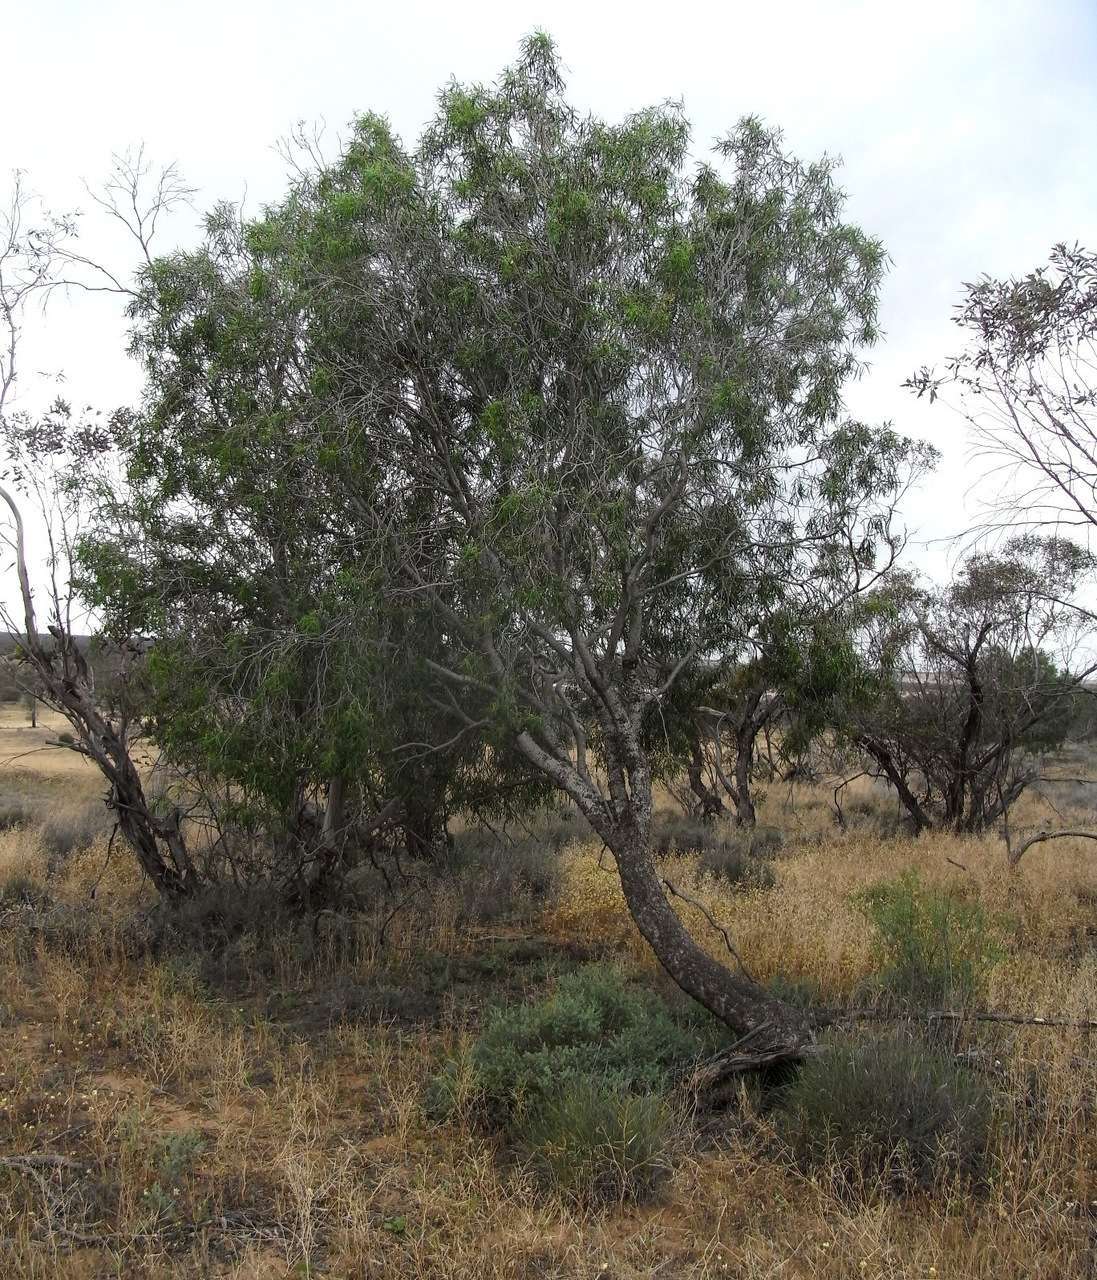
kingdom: Plantae
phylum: Tracheophyta
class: Magnoliopsida
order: Apiales
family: Pittosporaceae
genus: Pittosporum
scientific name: Pittosporum angustifolium
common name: Weeping pittosporum
